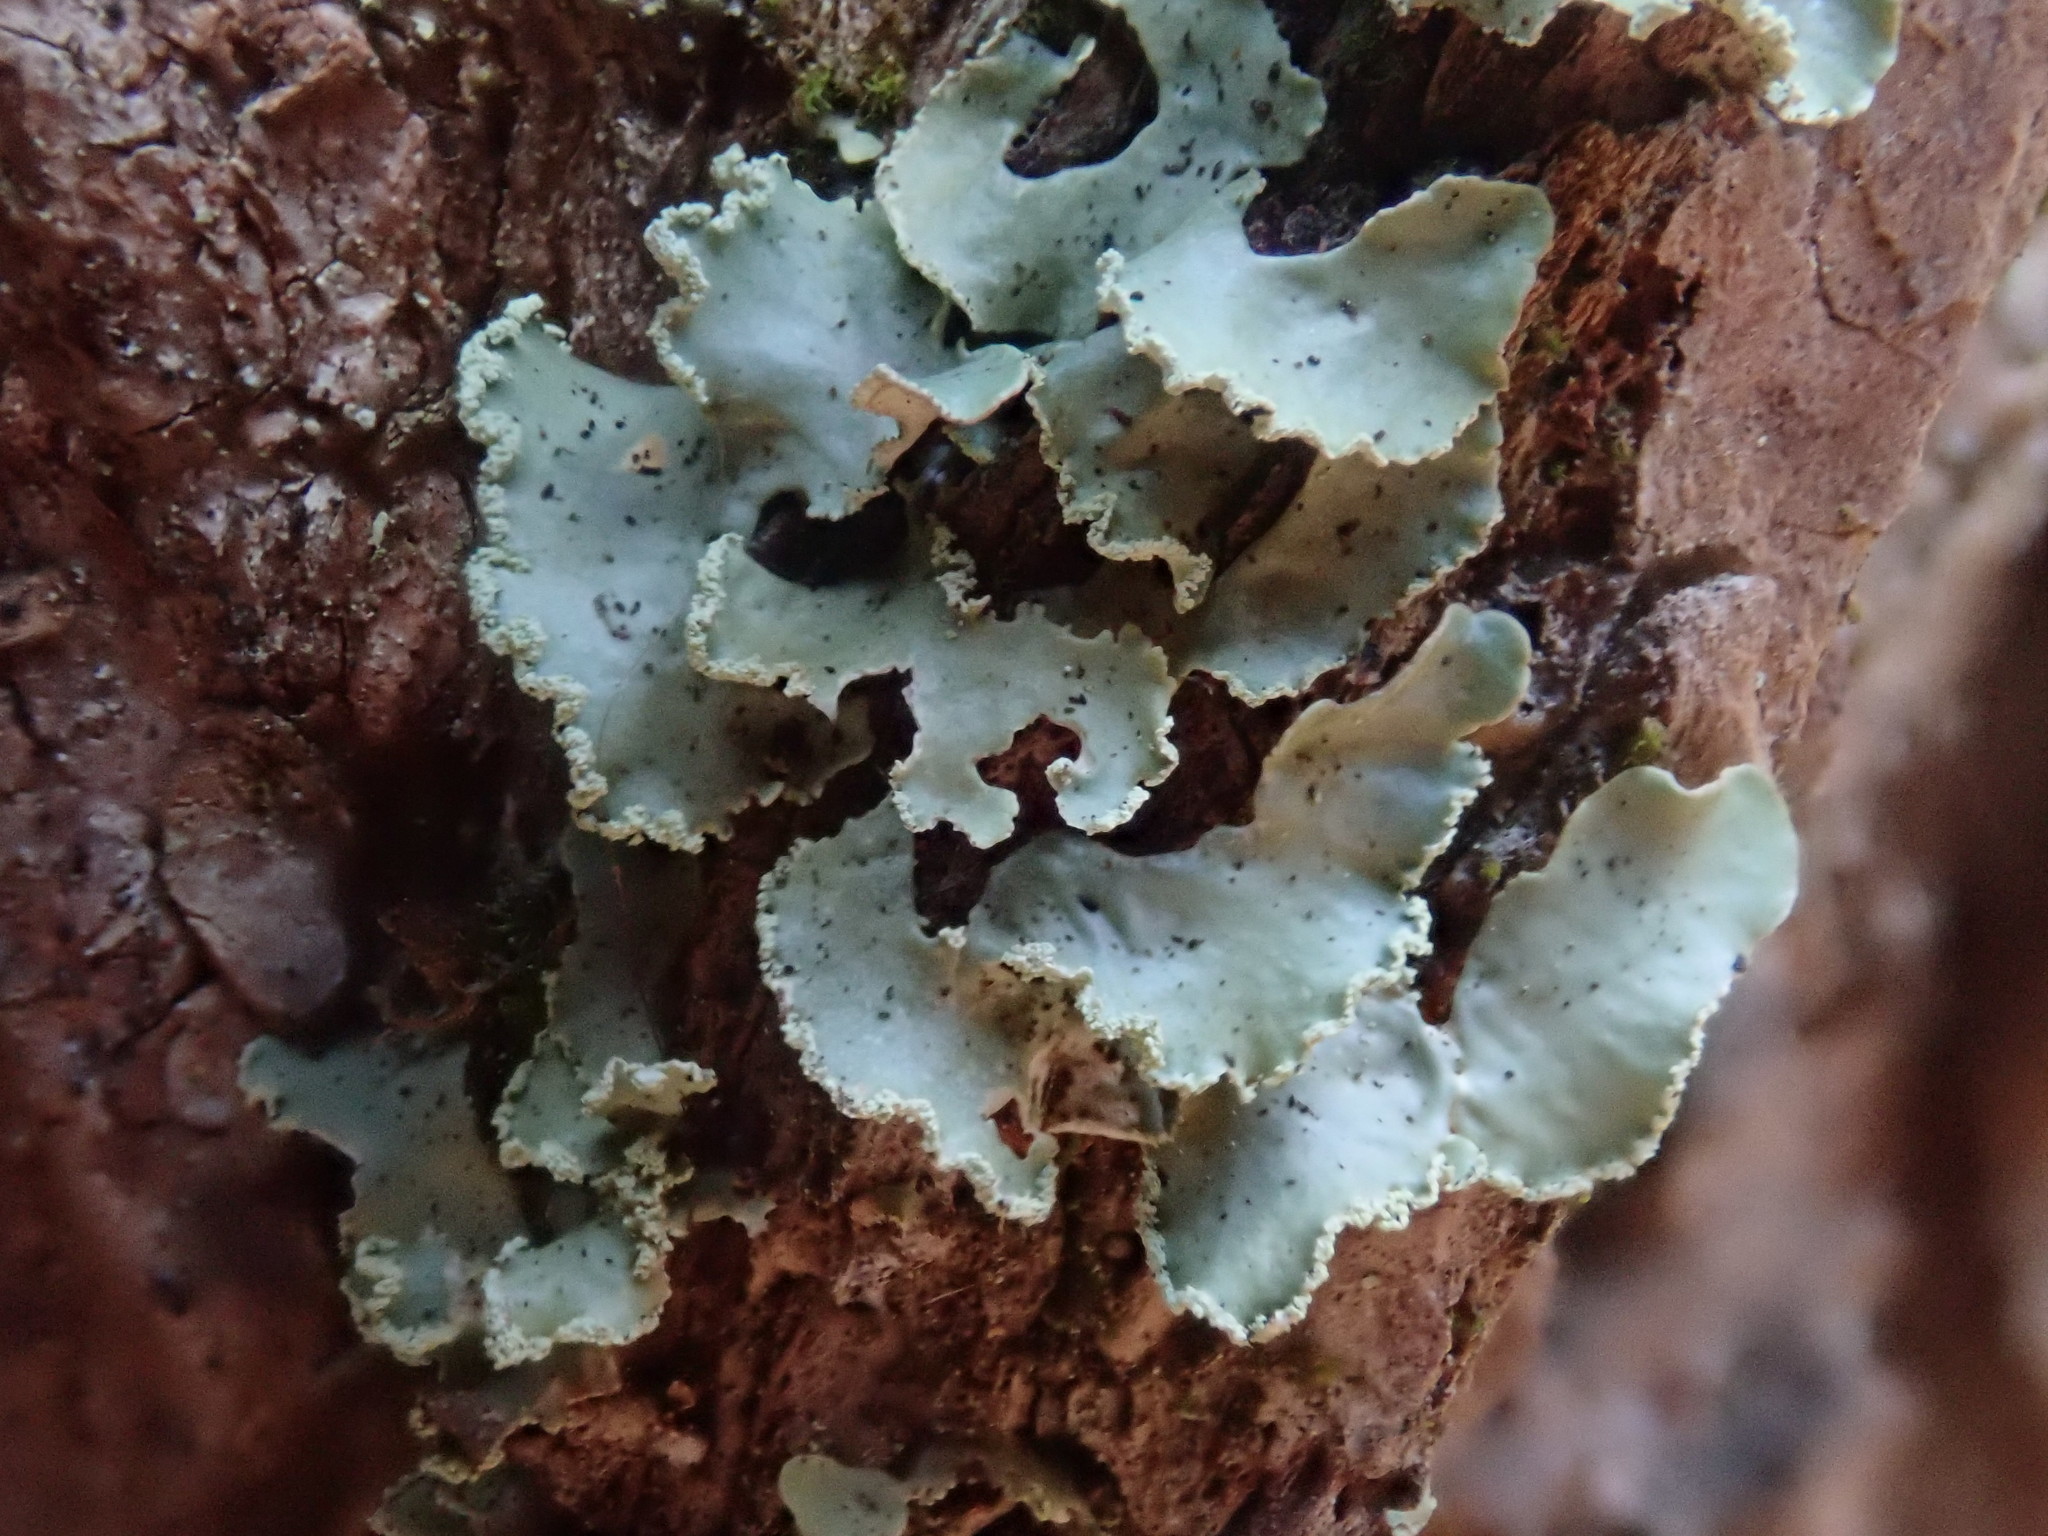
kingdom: Fungi
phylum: Ascomycota
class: Lecanoromycetes
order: Lecanorales
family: Parmeliaceae
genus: Usnocetraria
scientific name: Usnocetraria oakesiana
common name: Yellow ribbon lichen
